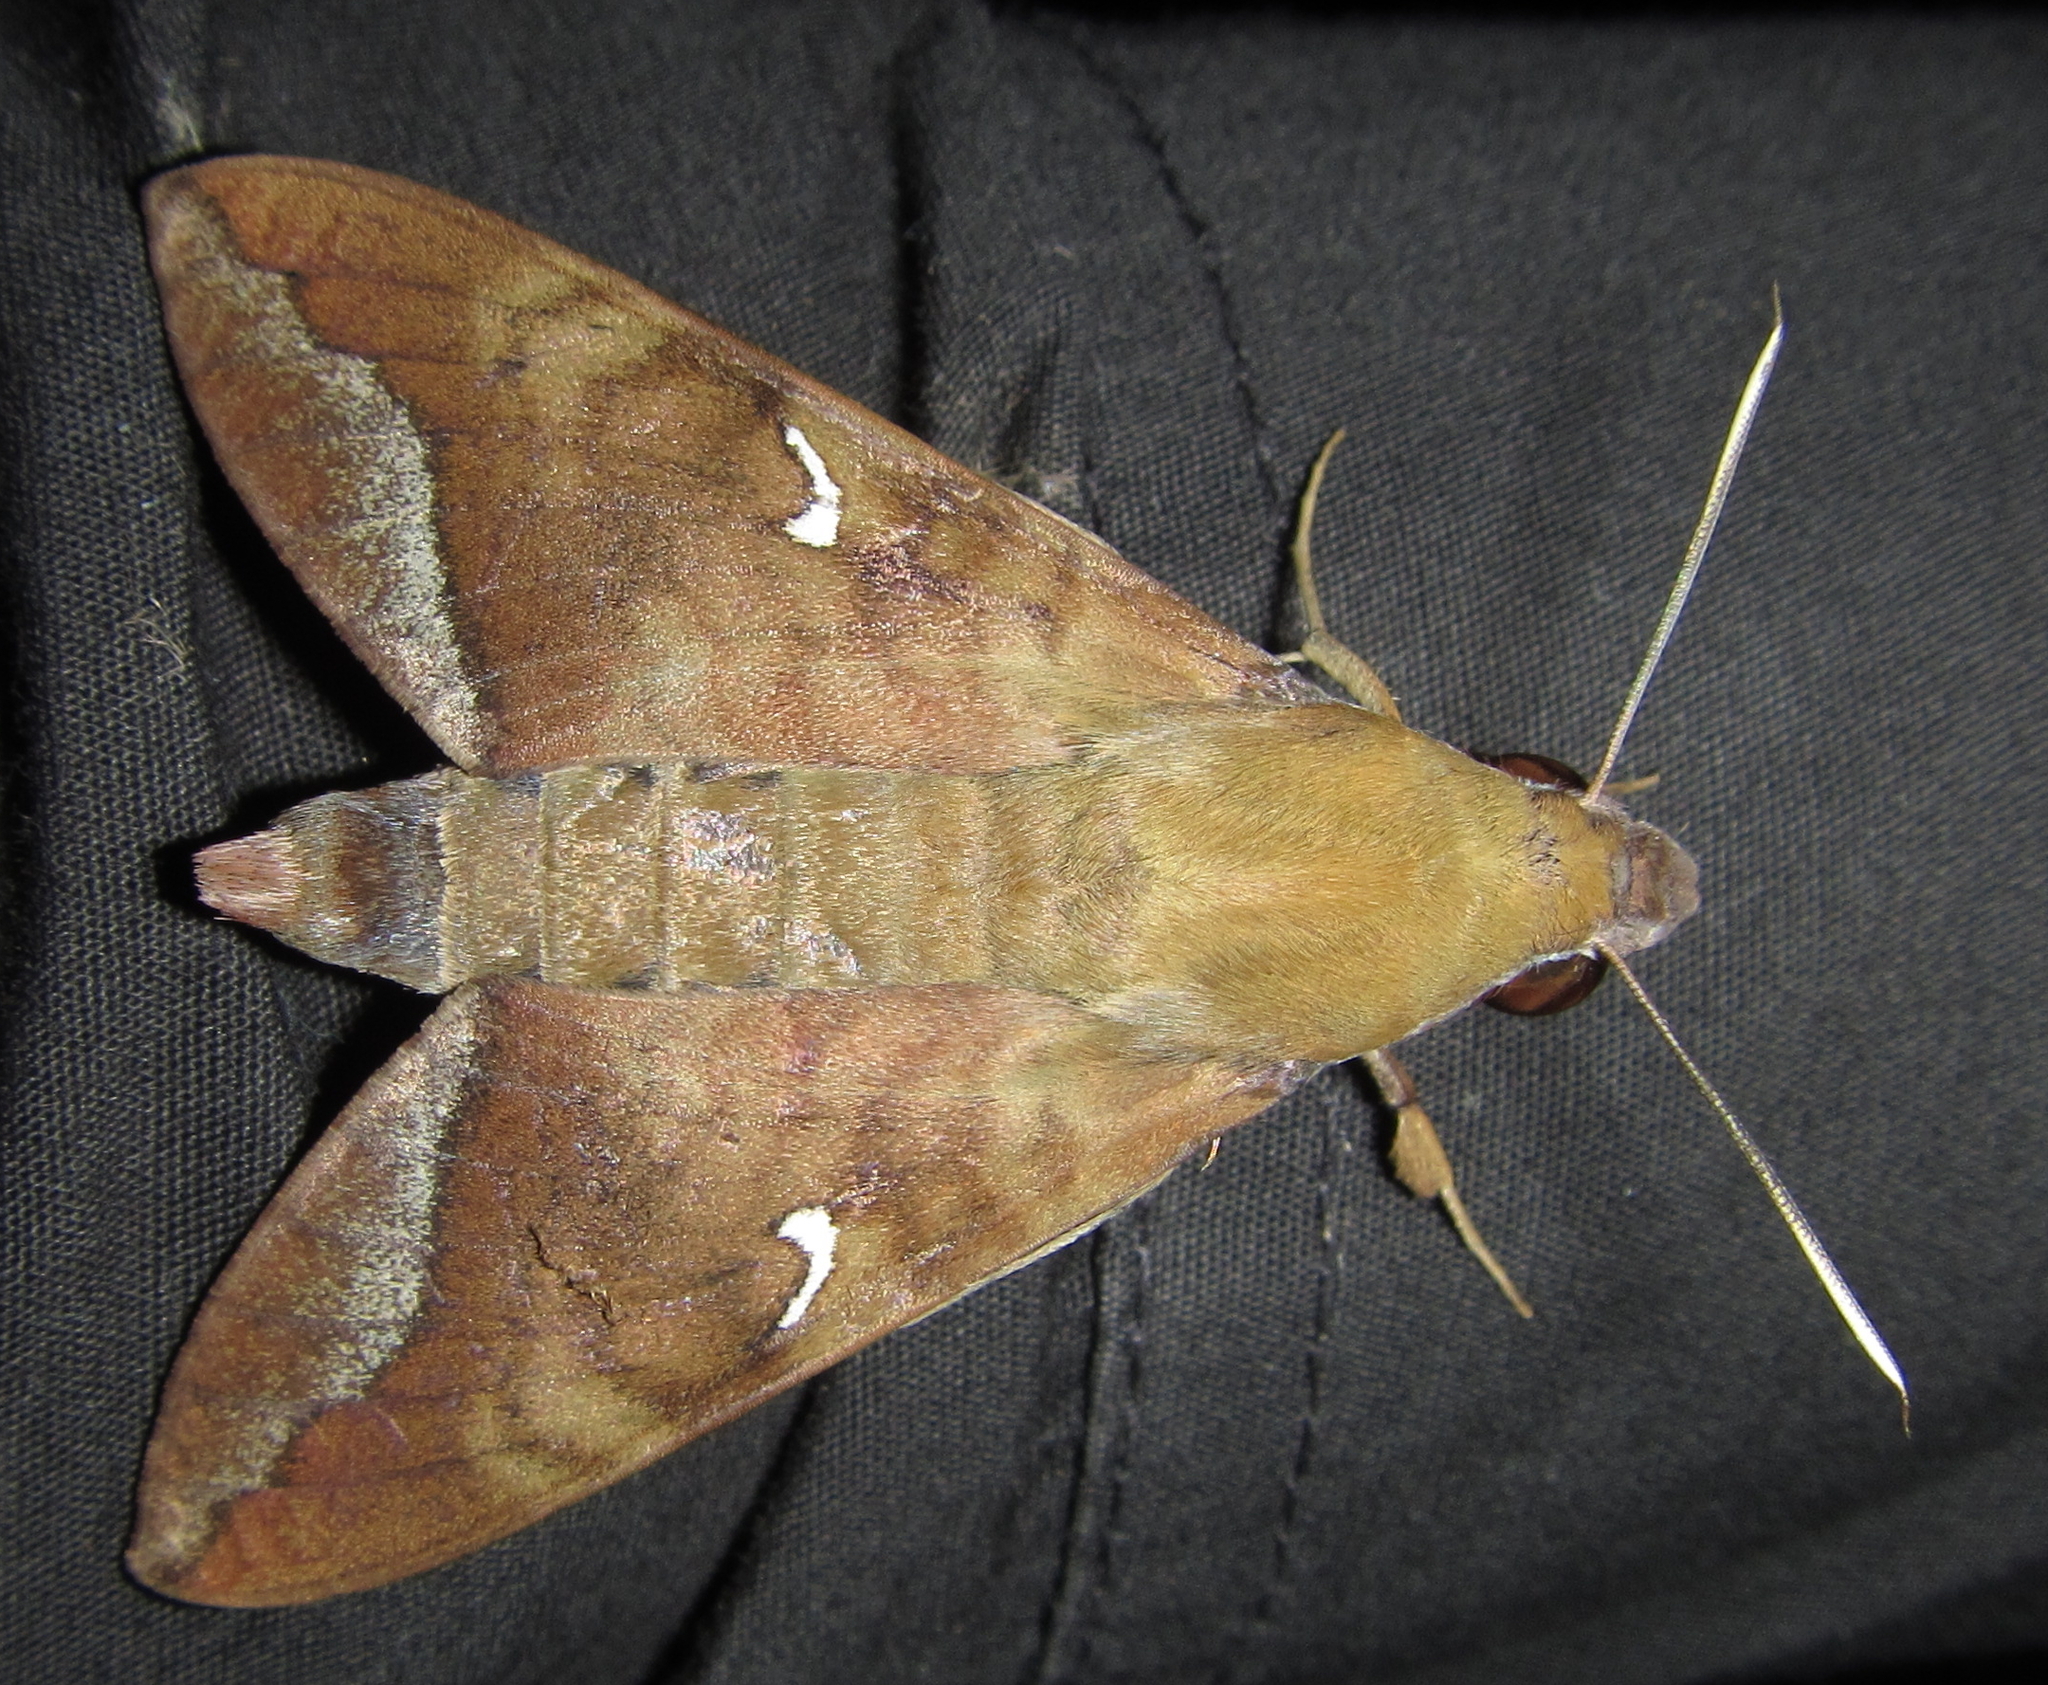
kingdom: Animalia
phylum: Arthropoda
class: Insecta
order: Lepidoptera
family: Sphingidae
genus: Nephele
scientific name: Nephele comma
